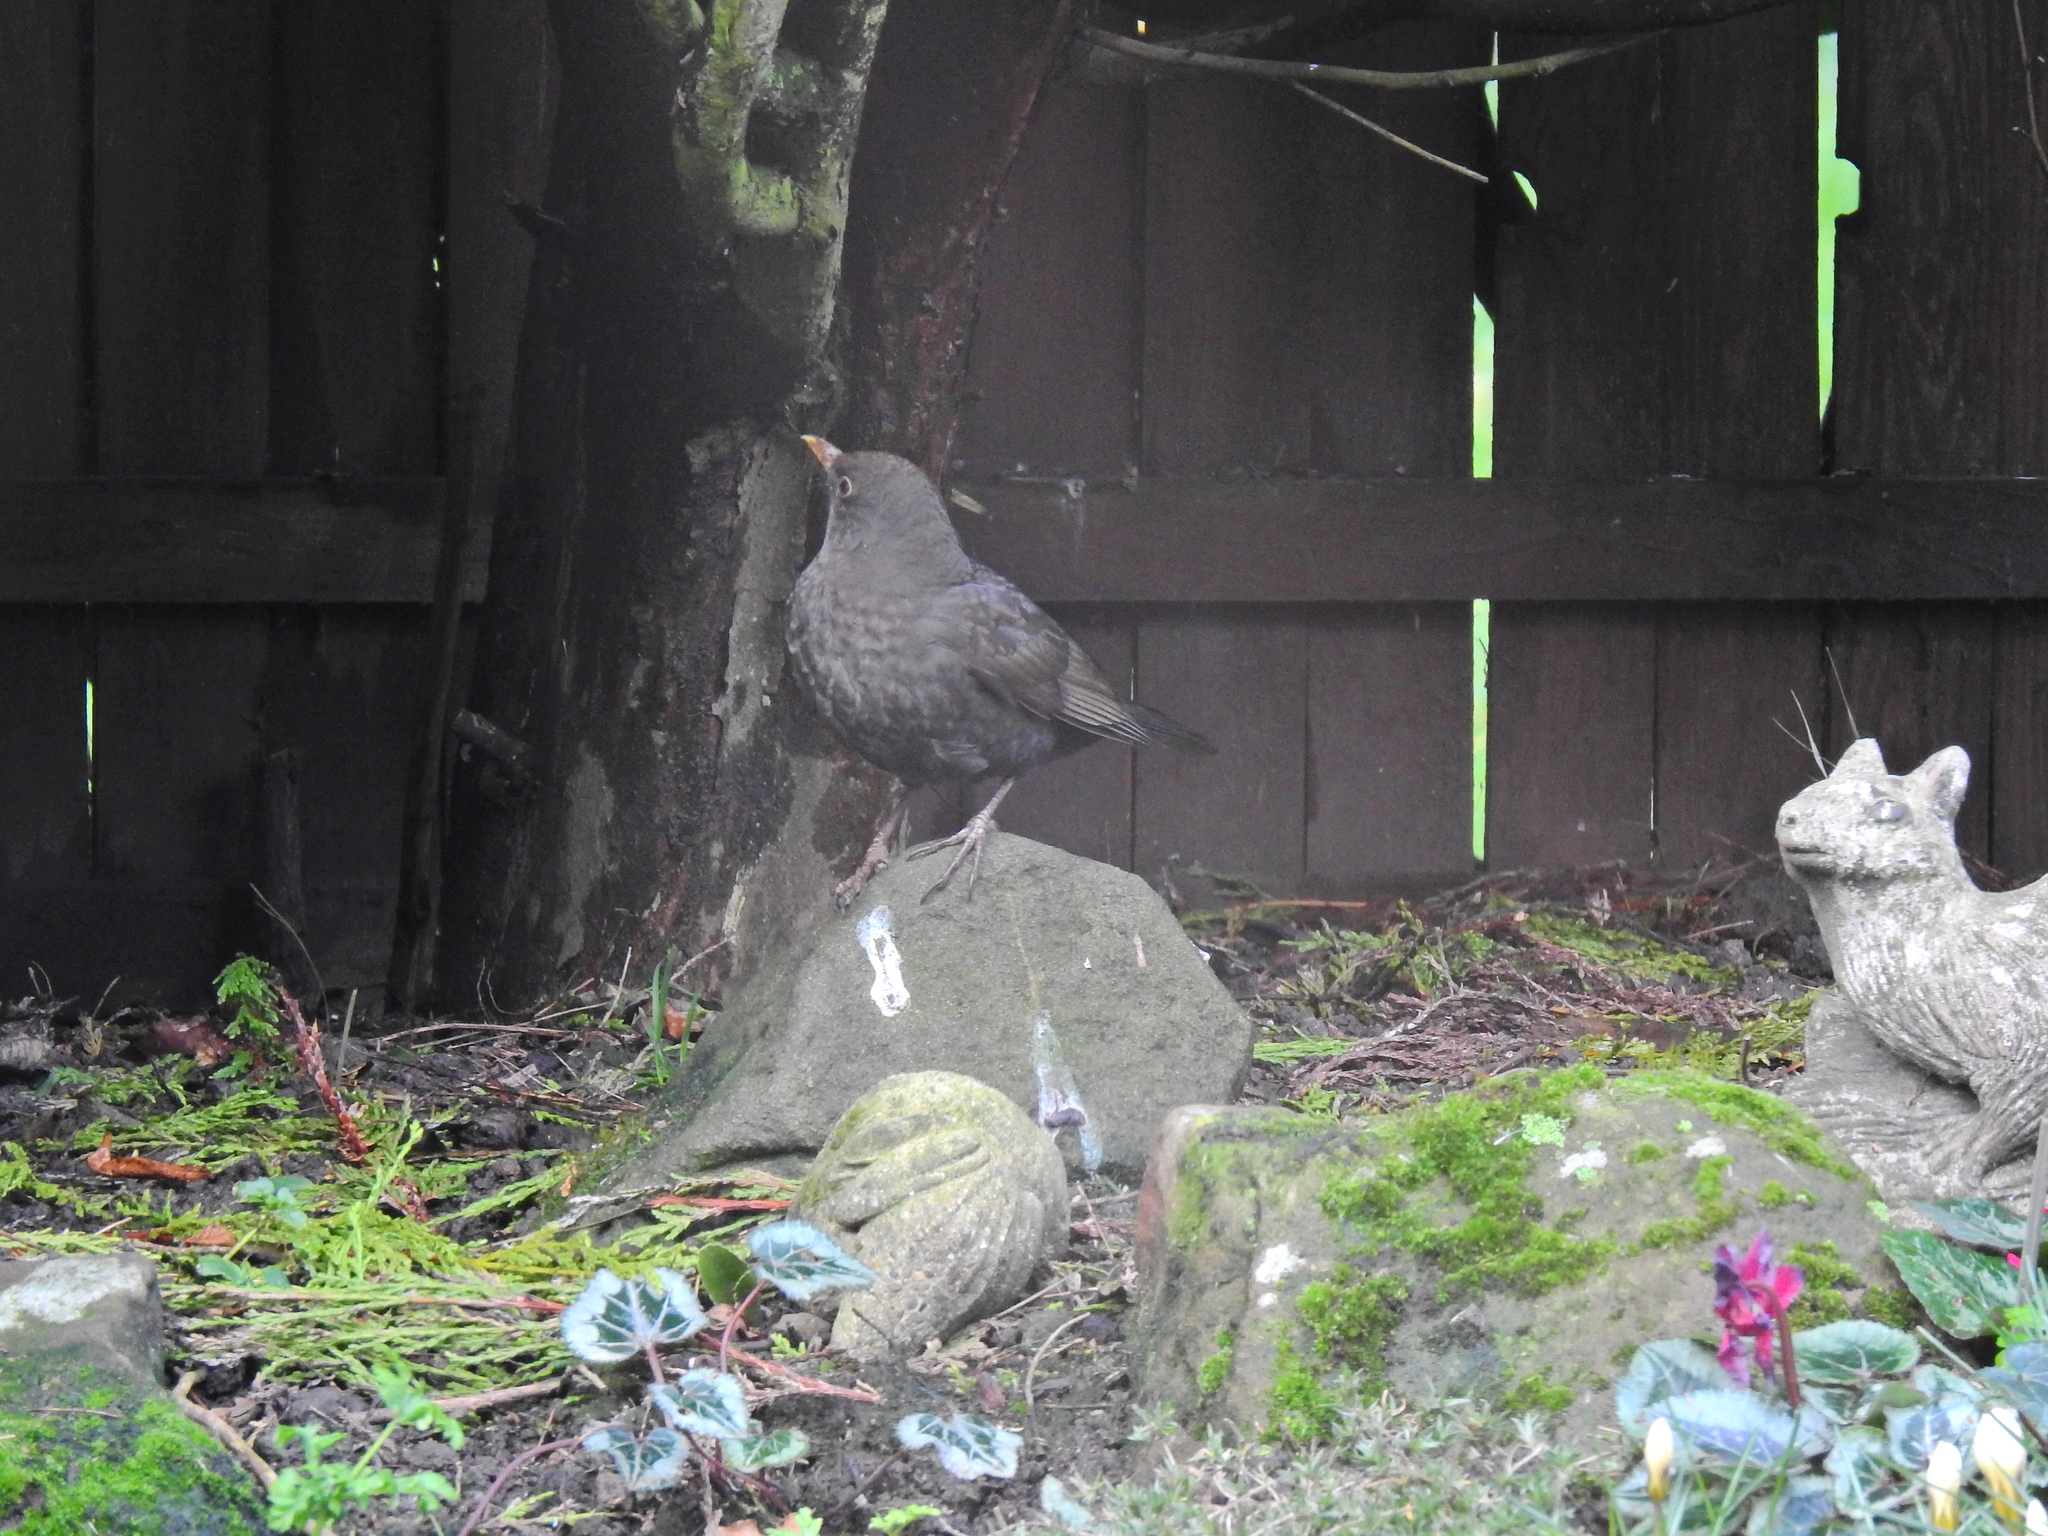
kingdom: Animalia
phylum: Chordata
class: Aves
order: Passeriformes
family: Turdidae
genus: Turdus
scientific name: Turdus merula
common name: Common blackbird
